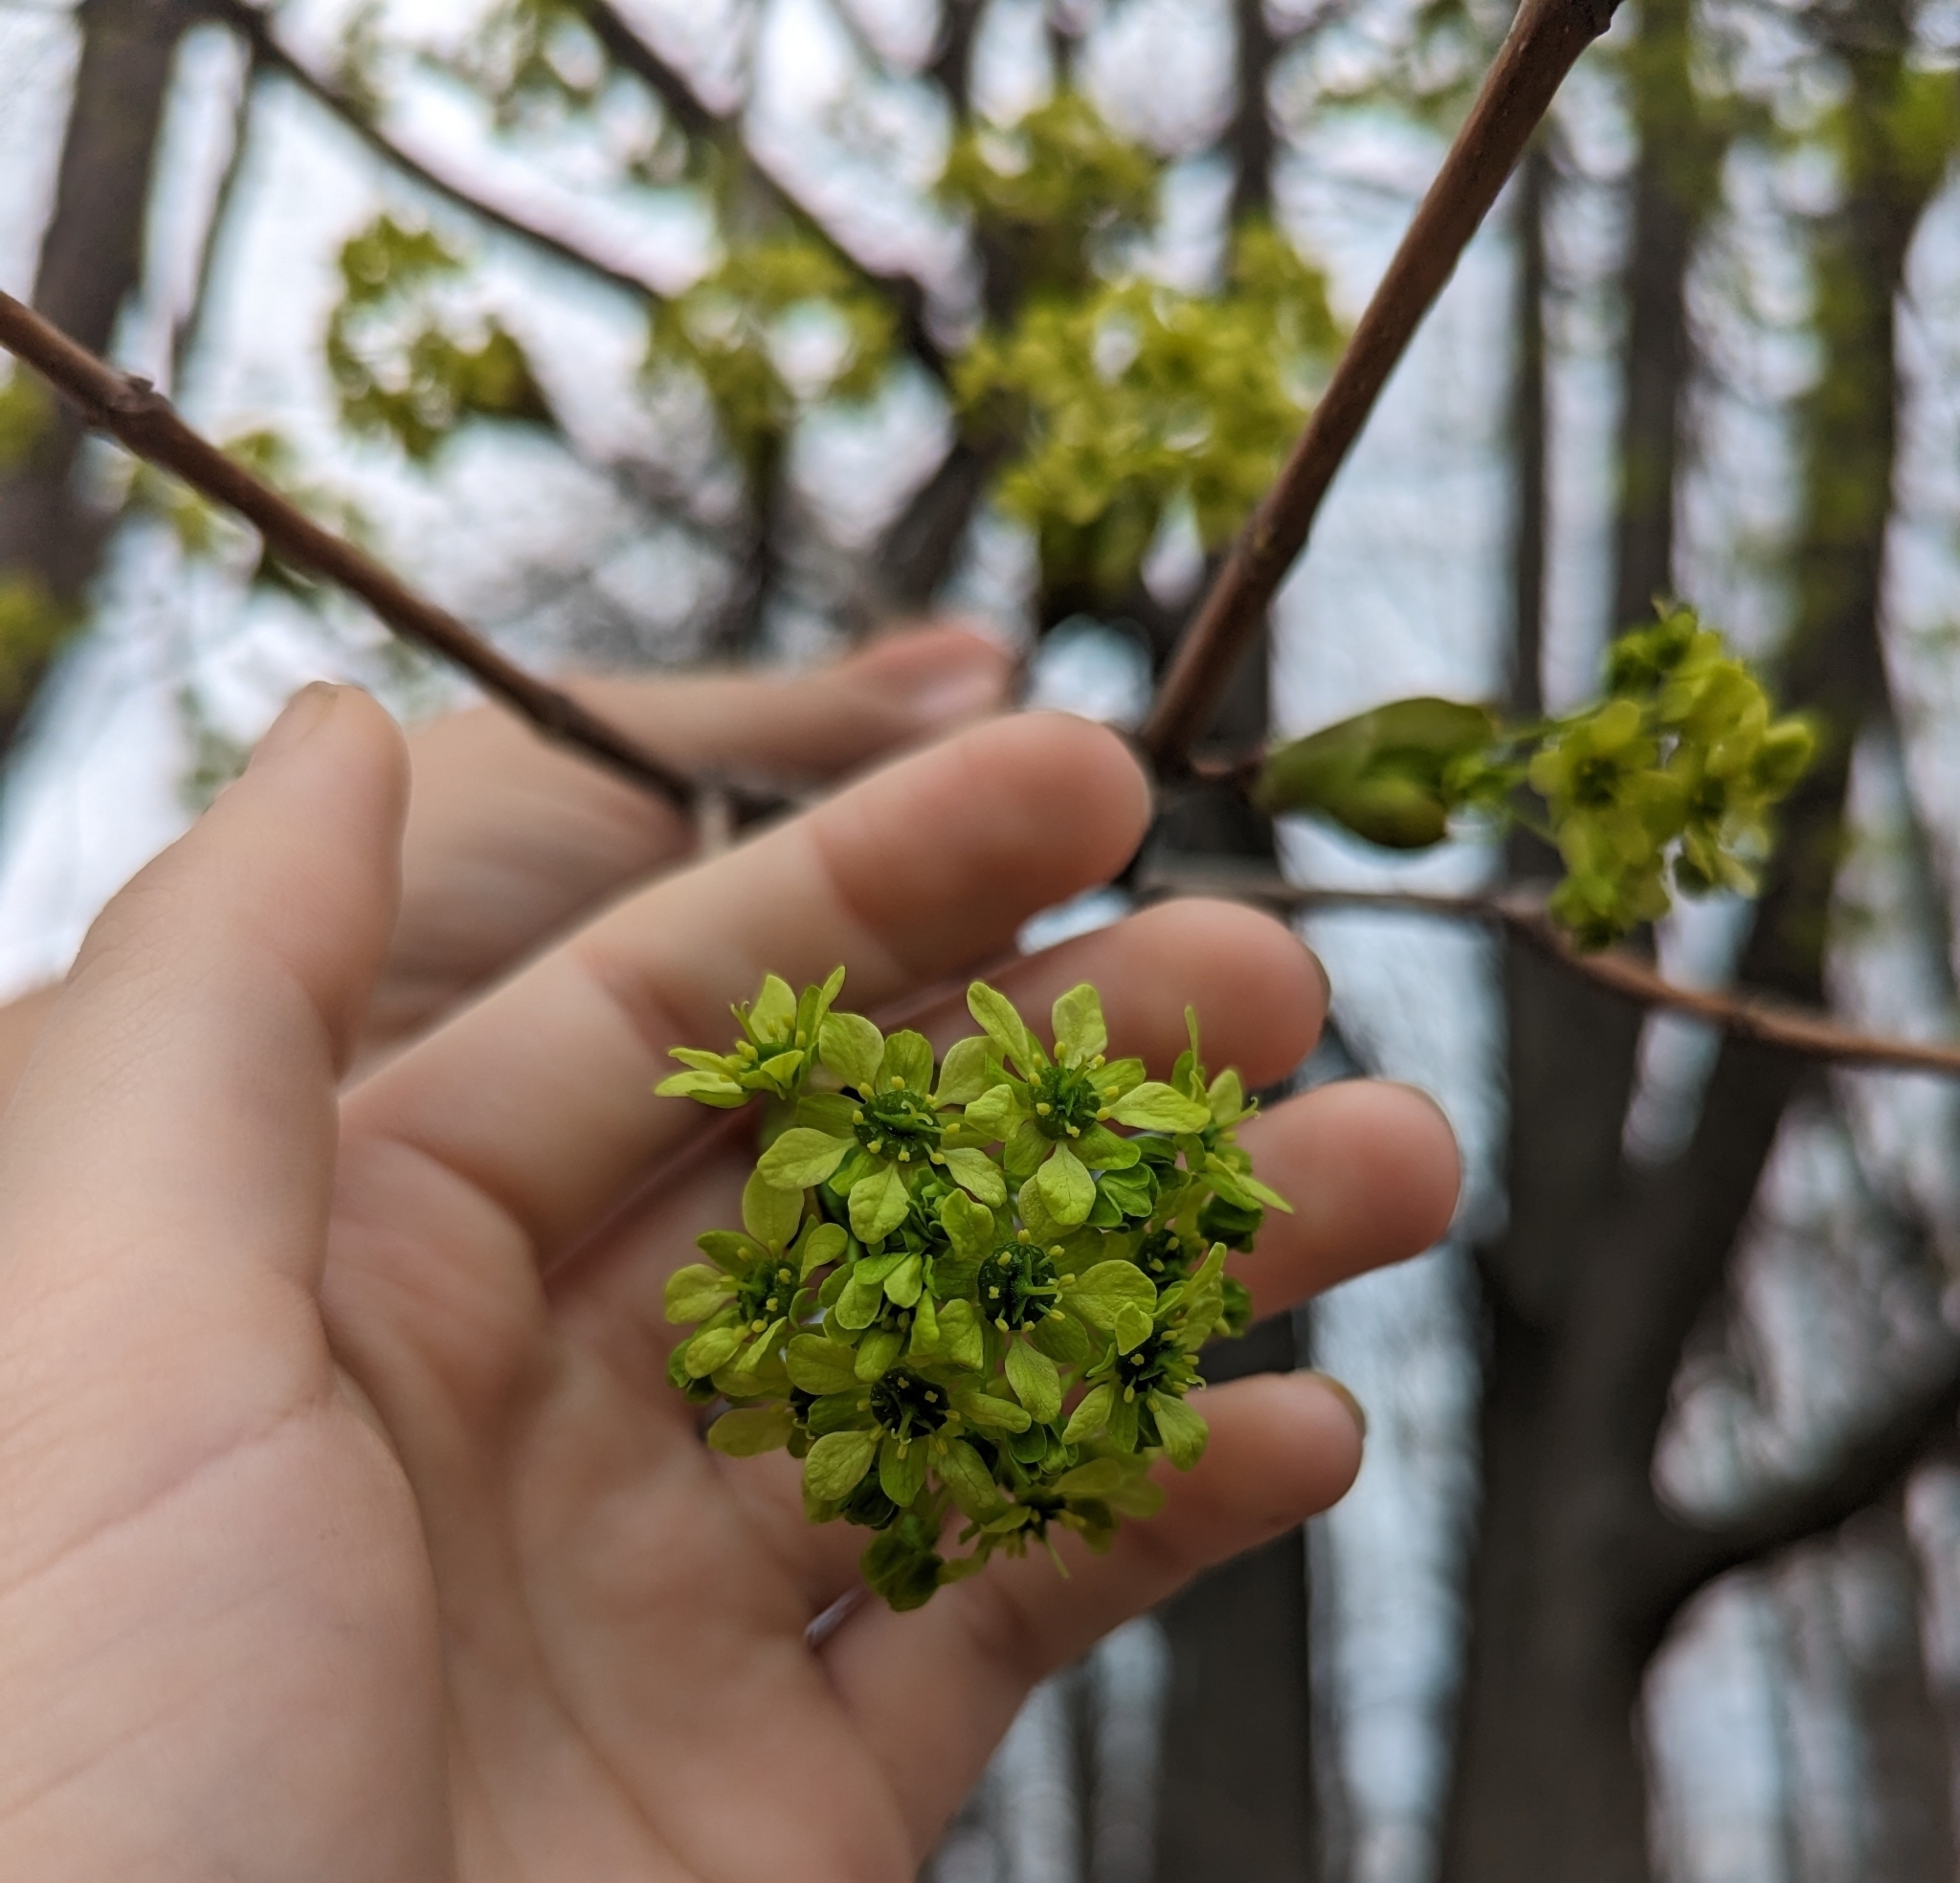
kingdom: Plantae
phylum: Tracheophyta
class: Magnoliopsida
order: Sapindales
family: Sapindaceae
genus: Acer
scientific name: Acer platanoides
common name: Norway maple
